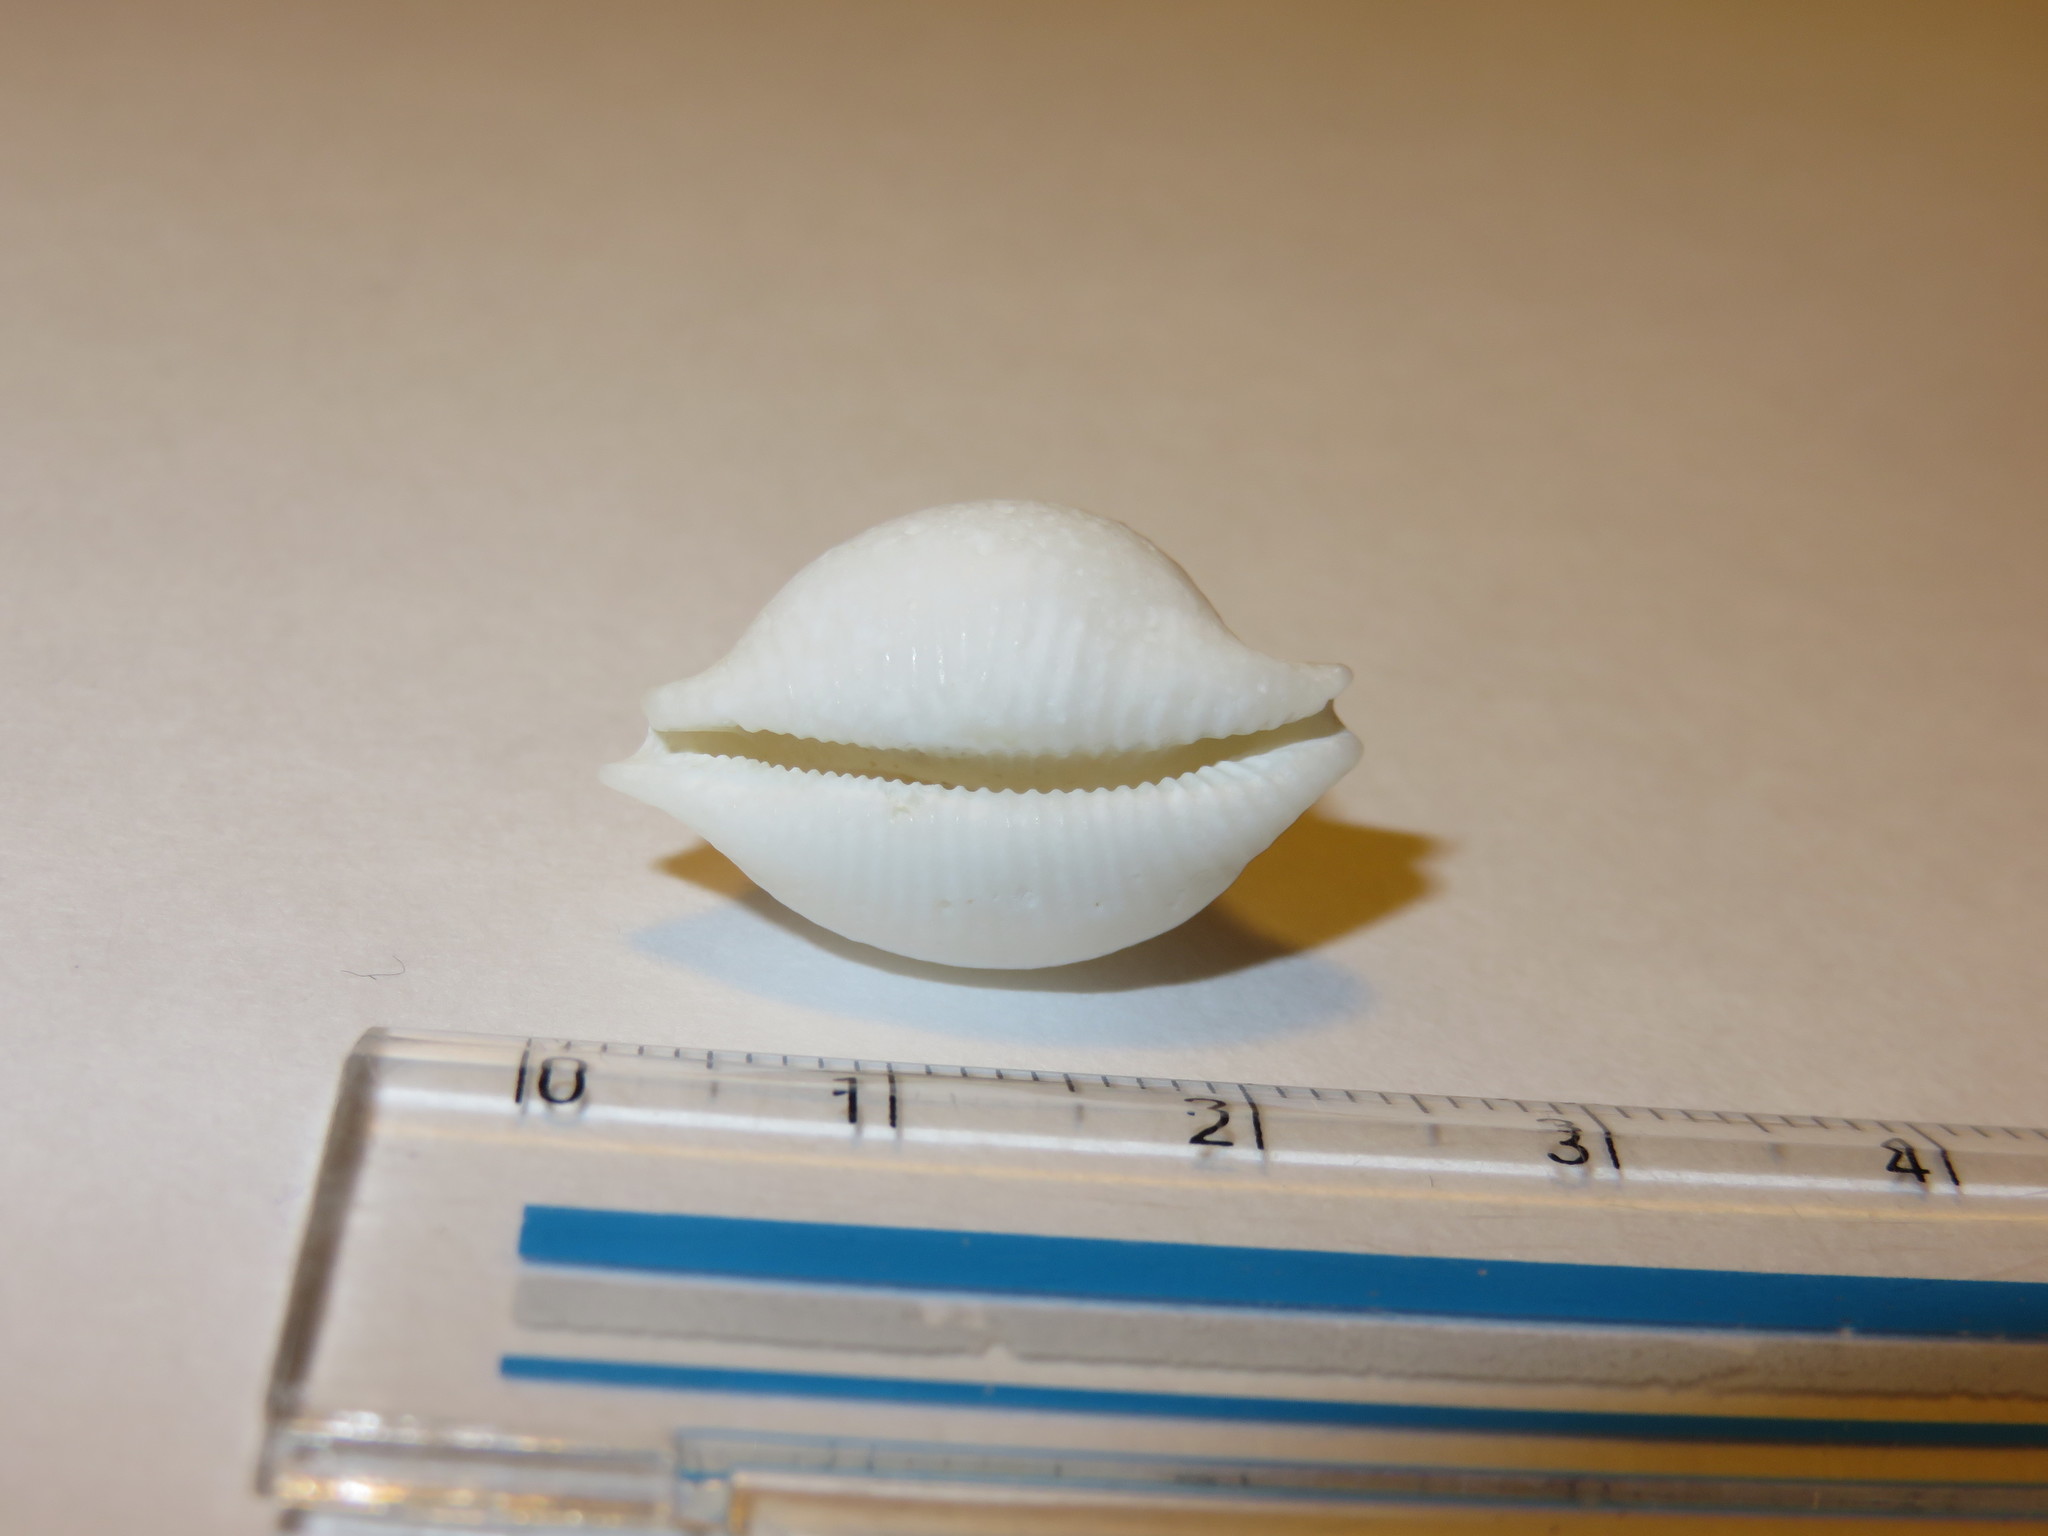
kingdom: Animalia
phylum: Mollusca
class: Gastropoda
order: Littorinimorpha
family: Cypraeidae
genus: Pustularia
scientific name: Pustularia cicercula
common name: Chick-pea cowrie
